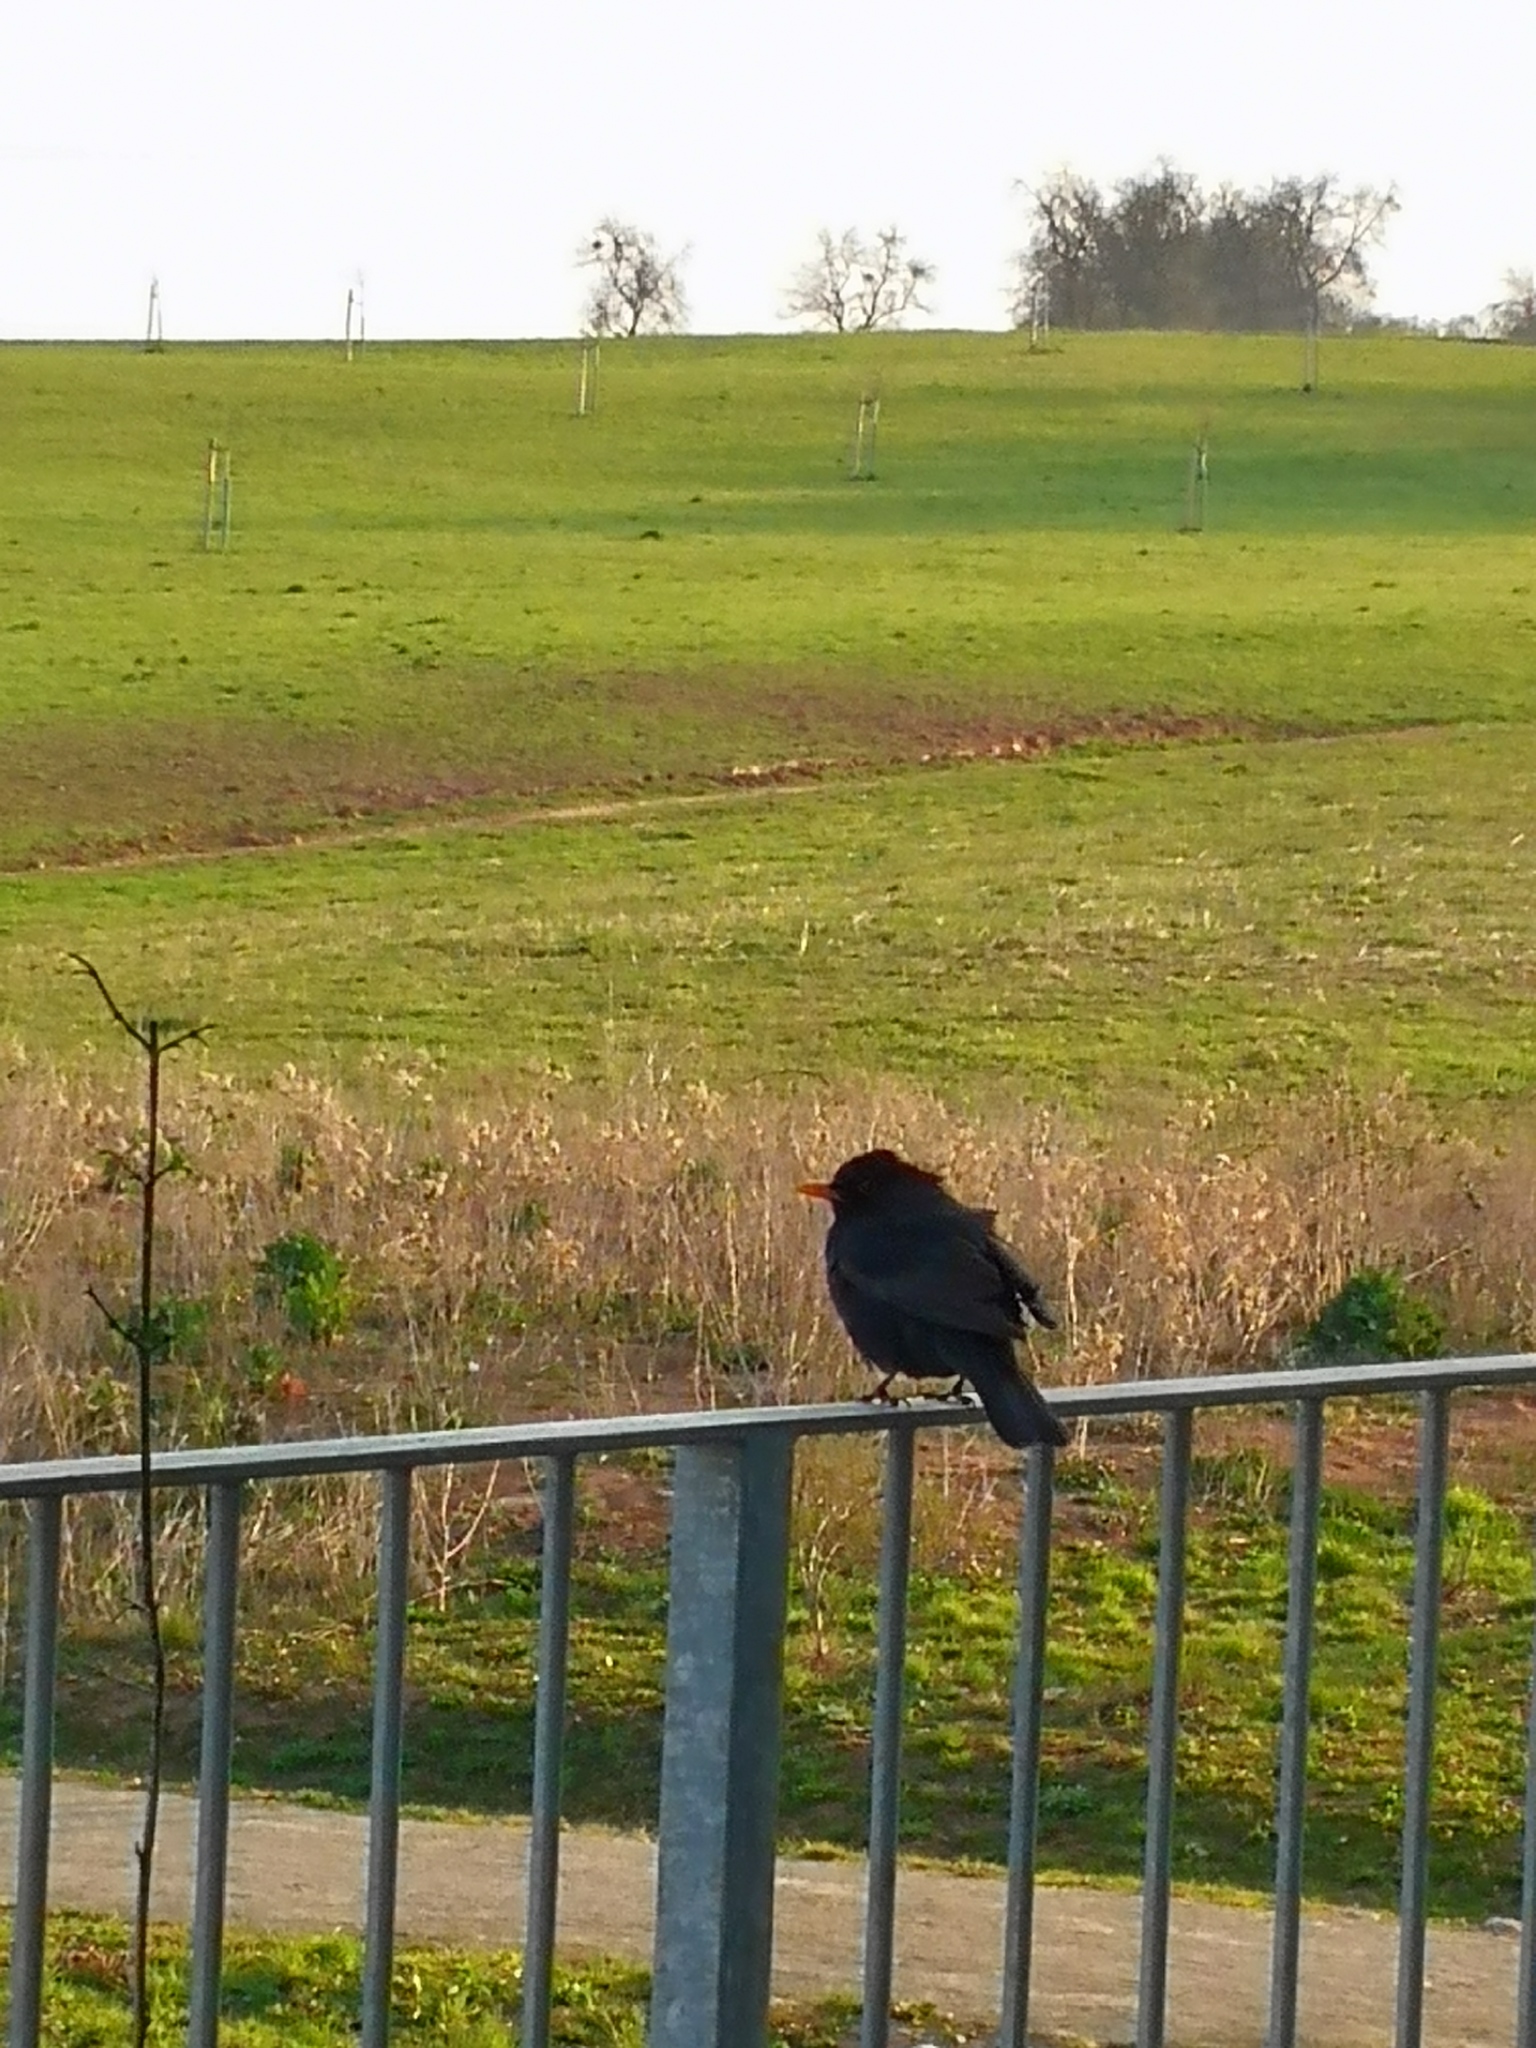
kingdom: Animalia
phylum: Chordata
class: Aves
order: Passeriformes
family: Turdidae
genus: Turdus
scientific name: Turdus merula
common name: Common blackbird
